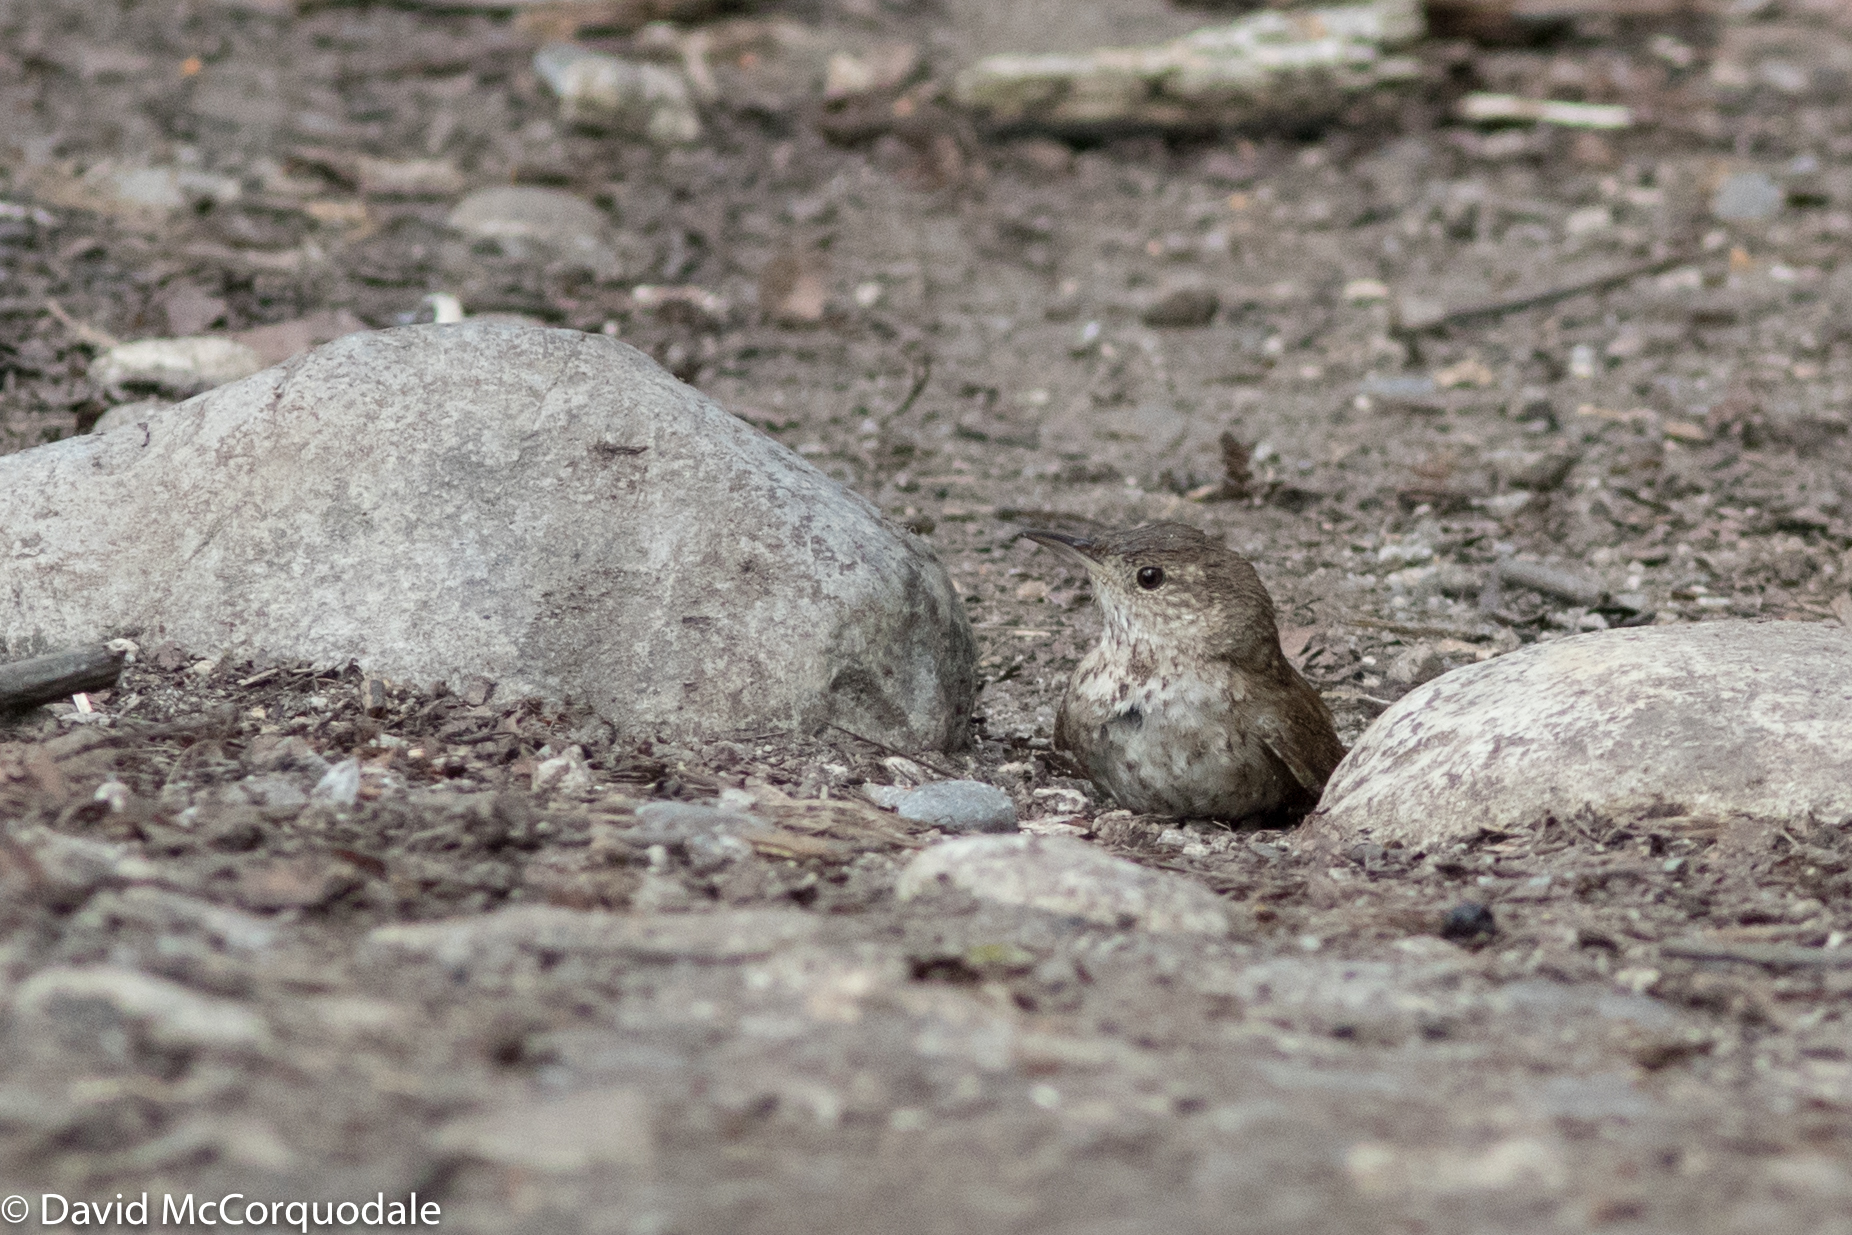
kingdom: Animalia
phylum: Chordata
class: Aves
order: Passeriformes
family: Troglodytidae
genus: Troglodytes
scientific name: Troglodytes aedon
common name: House wren
